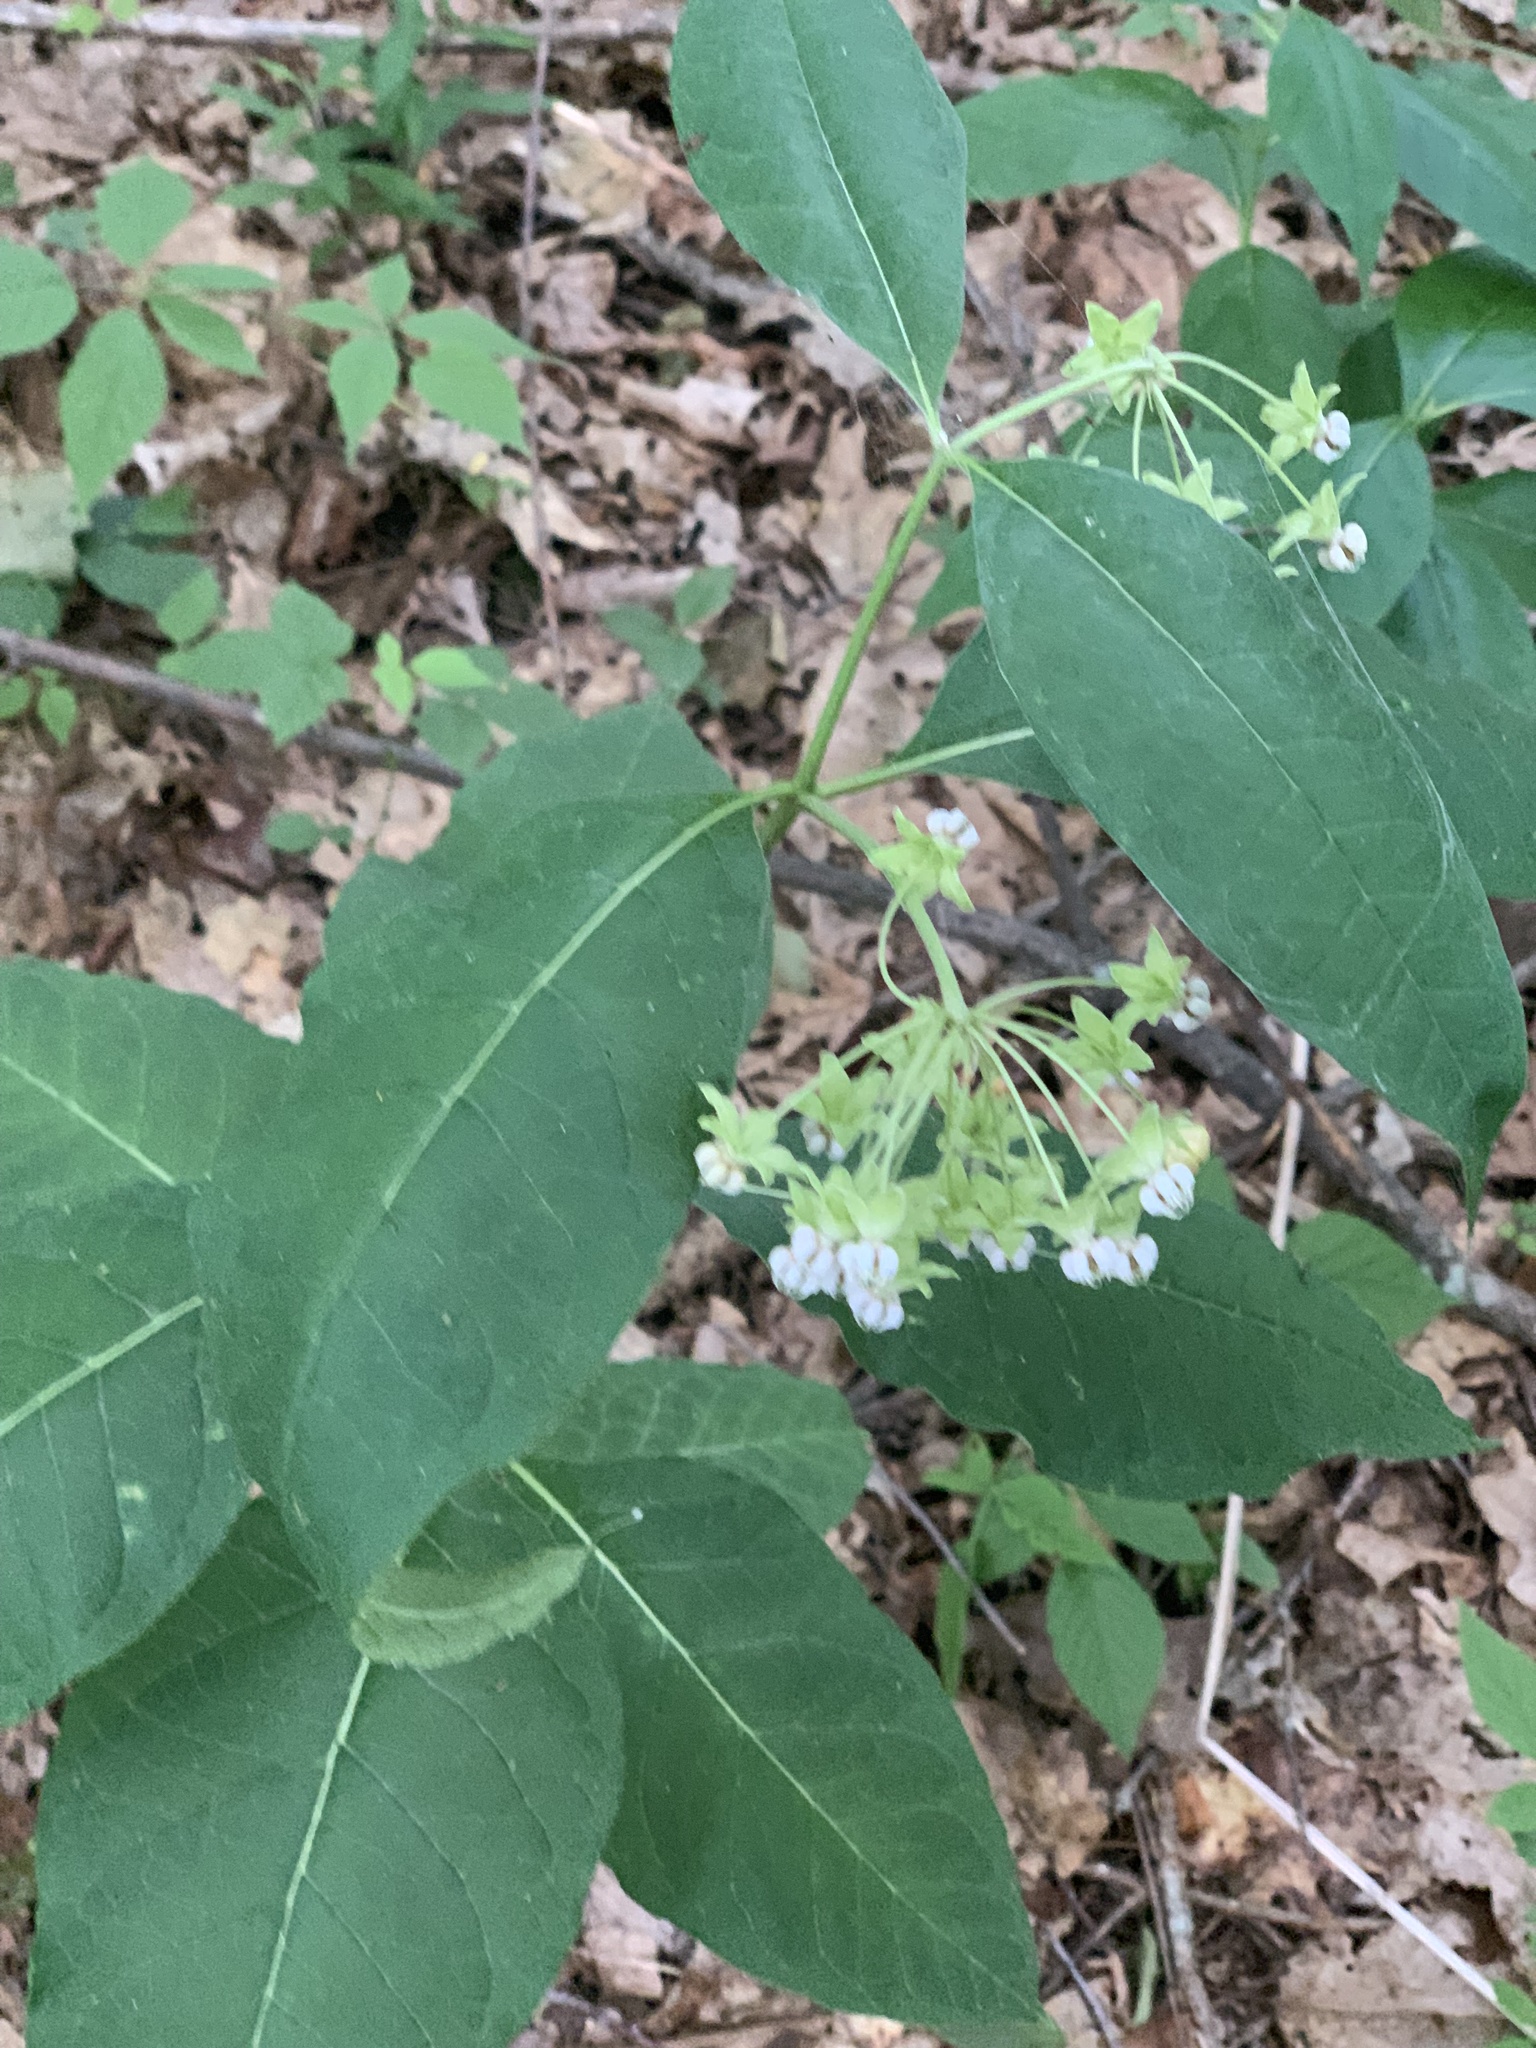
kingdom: Plantae
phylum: Tracheophyta
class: Magnoliopsida
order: Gentianales
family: Apocynaceae
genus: Asclepias
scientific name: Asclepias exaltata
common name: Poke milkweed
